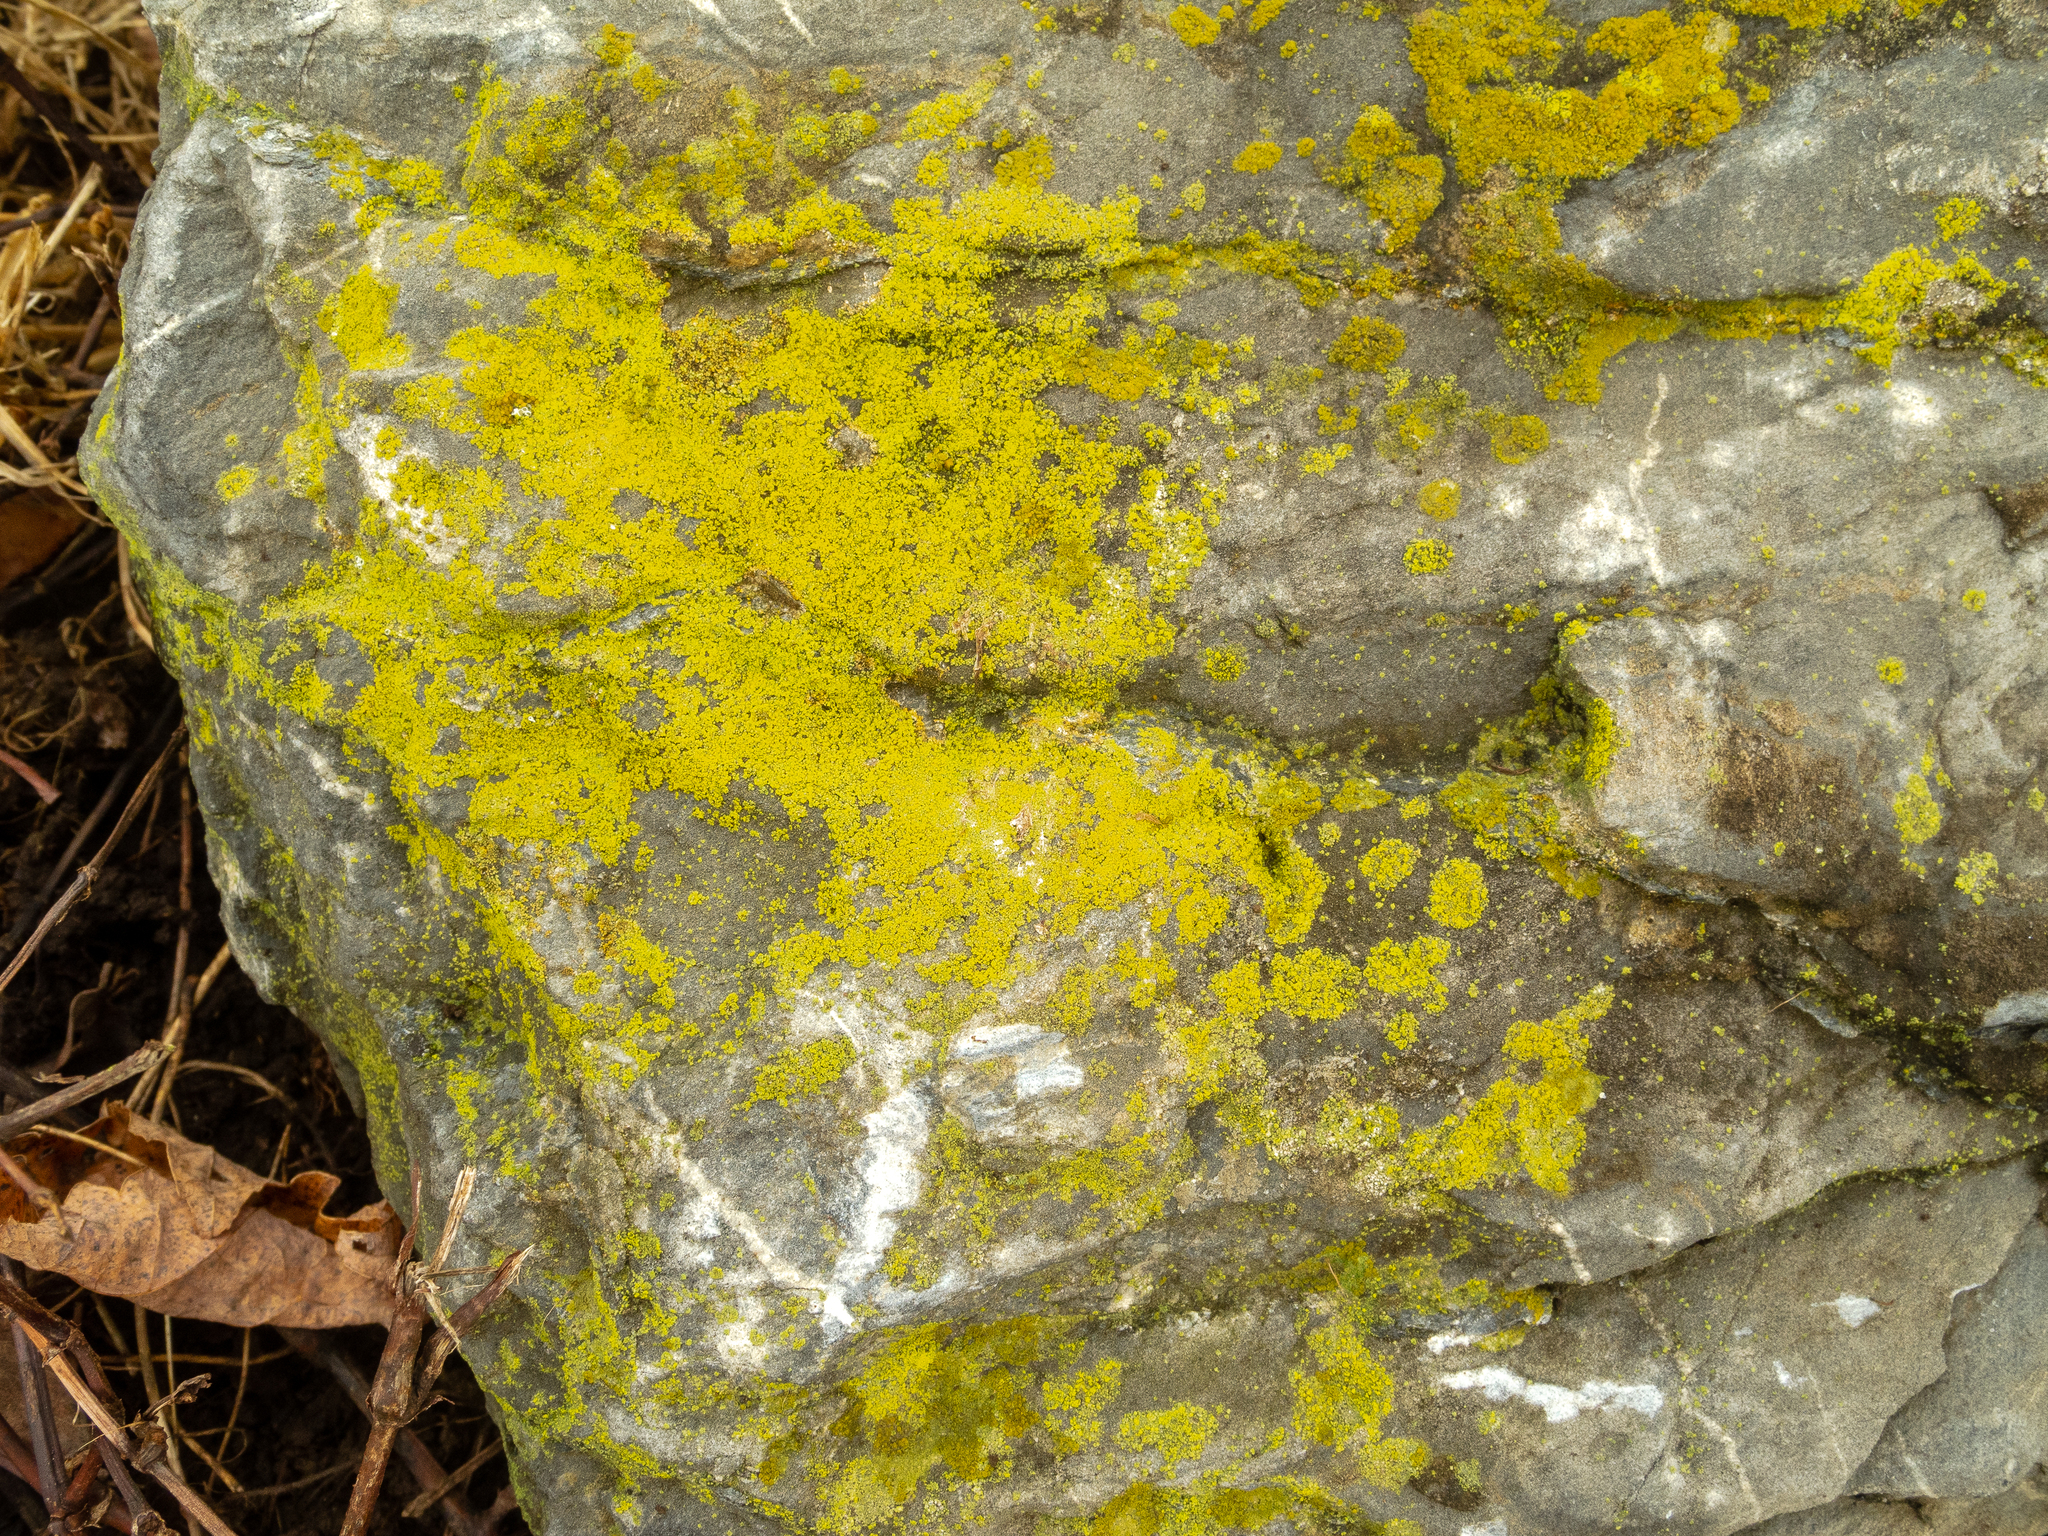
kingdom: Fungi
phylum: Ascomycota
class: Candelariomycetes
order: Candelariales
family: Candelariaceae
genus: Candelaria
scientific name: Candelaria concolor
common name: Candleflame lichen
